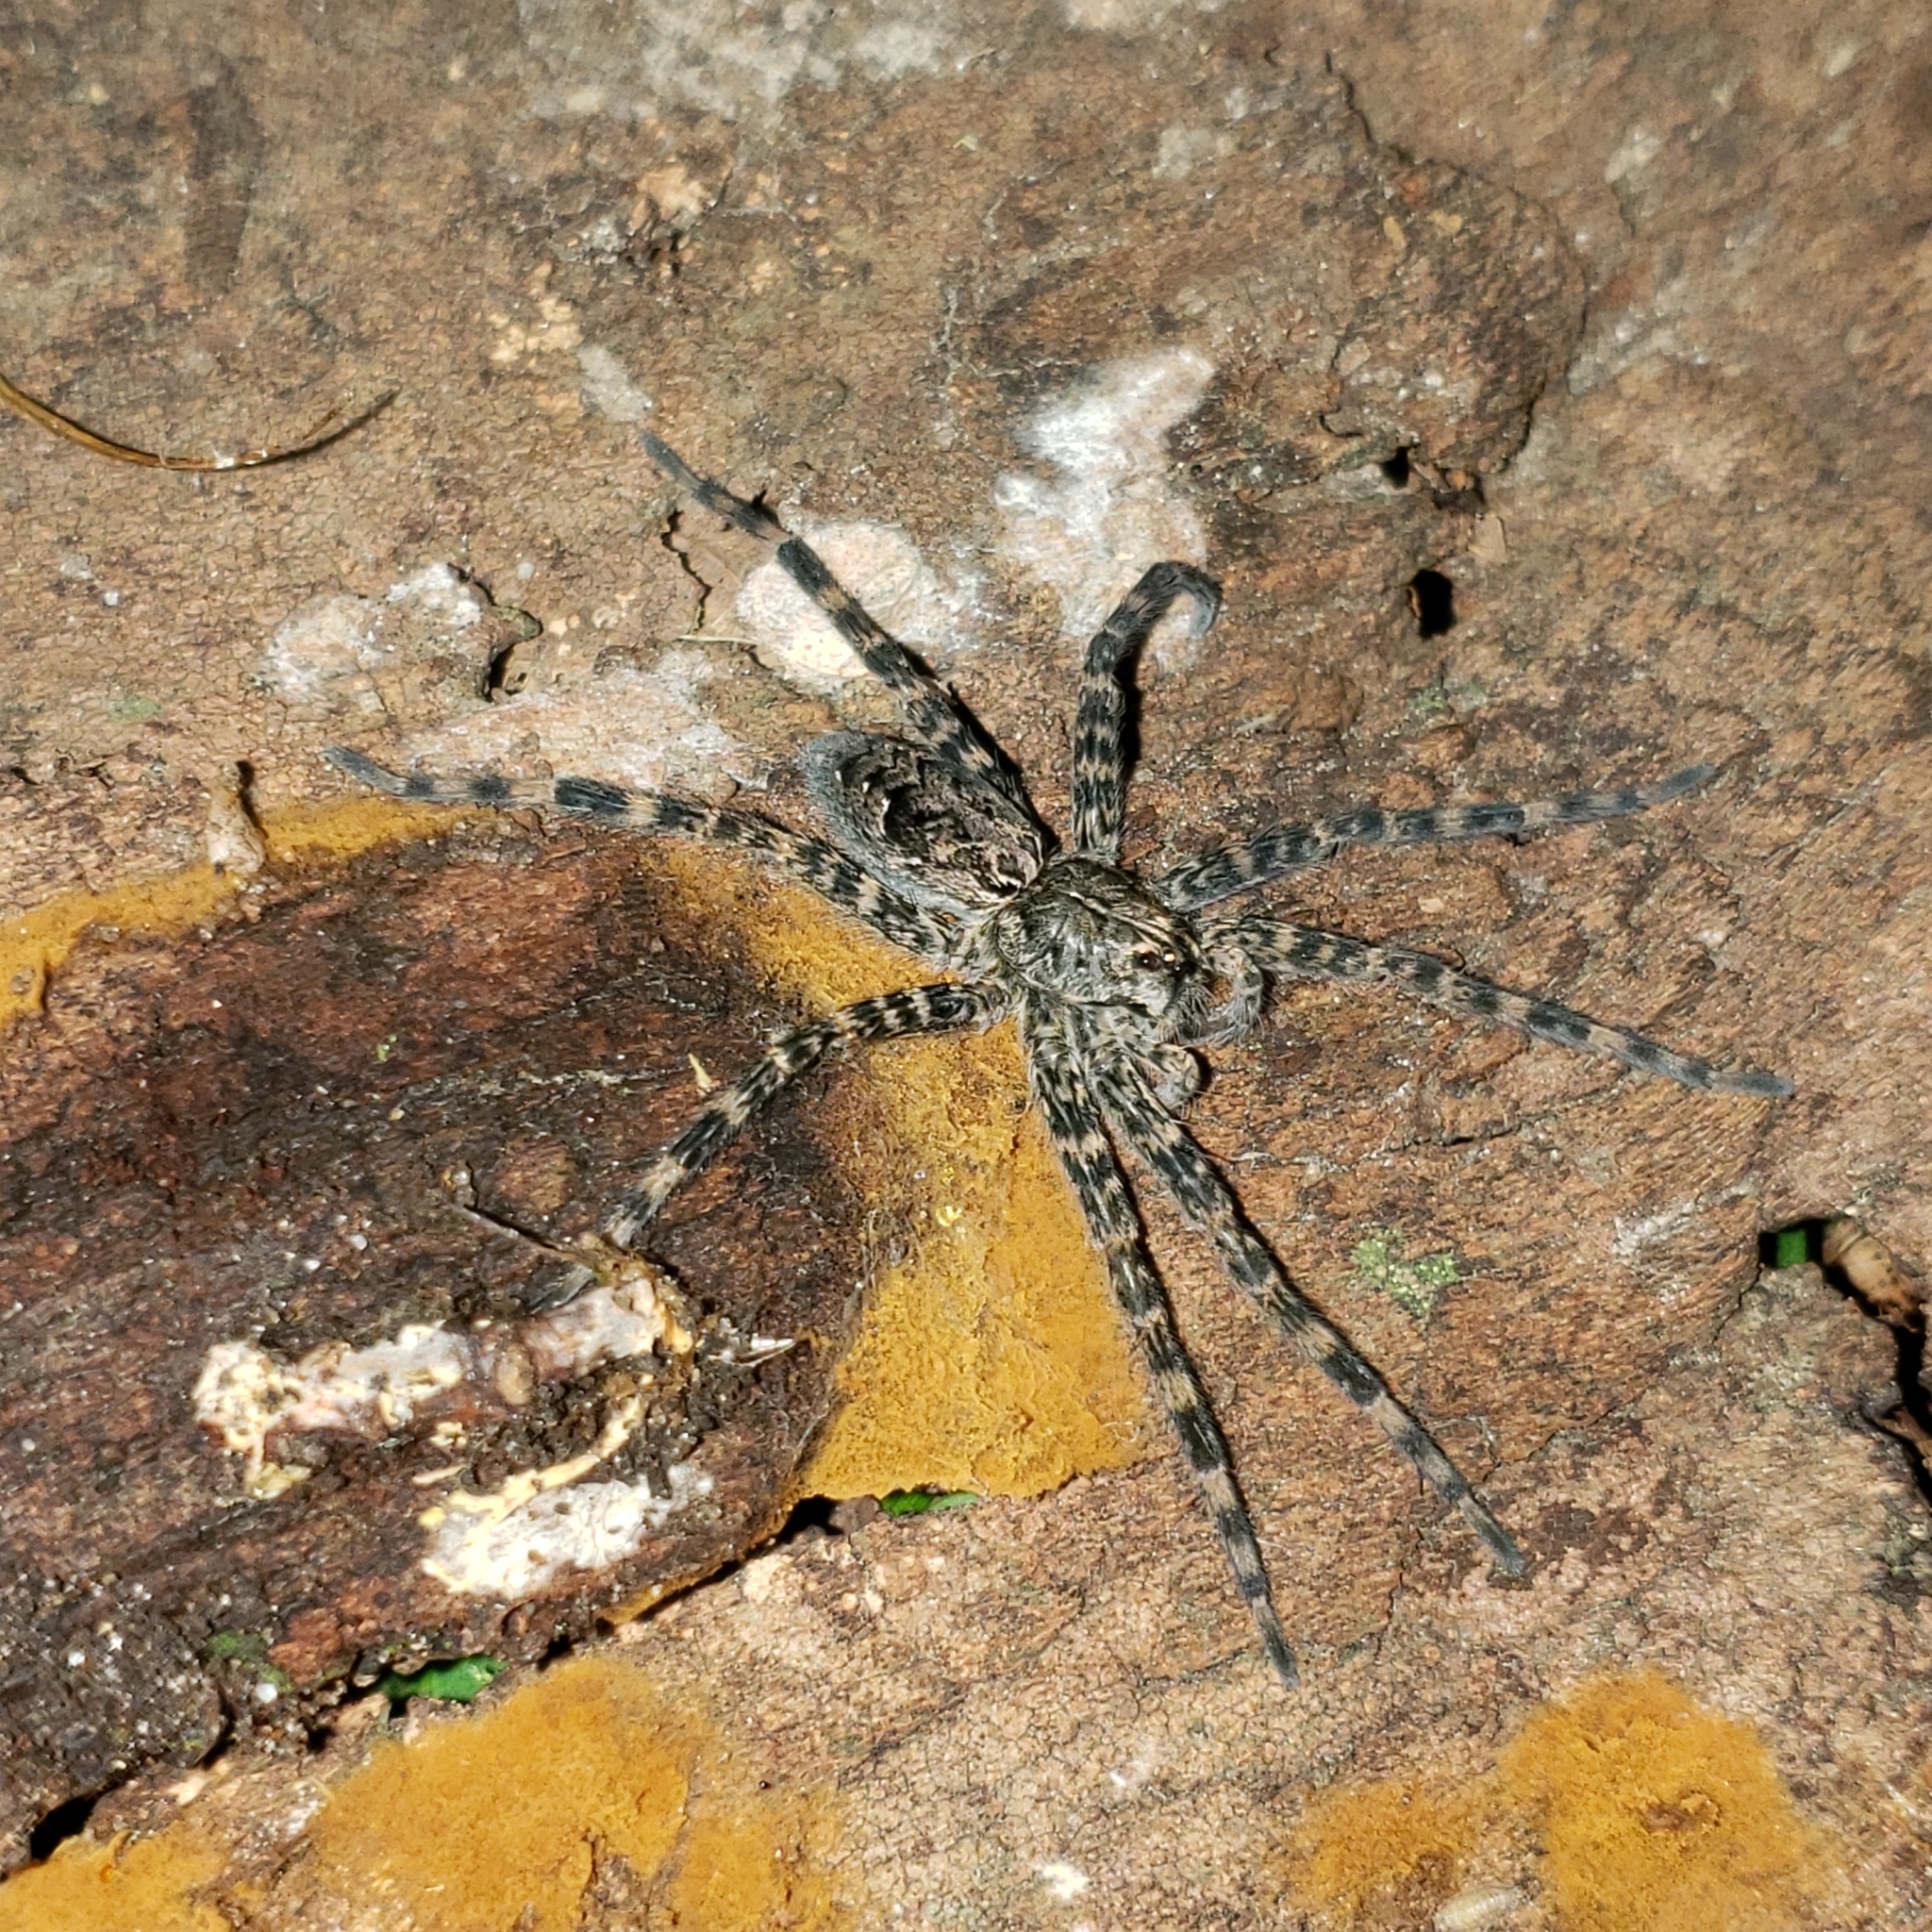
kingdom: Animalia
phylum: Arthropoda
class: Arachnida
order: Araneae
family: Pisauridae
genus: Dolomedes
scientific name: Dolomedes tenebrosus
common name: Dark fishing spider
